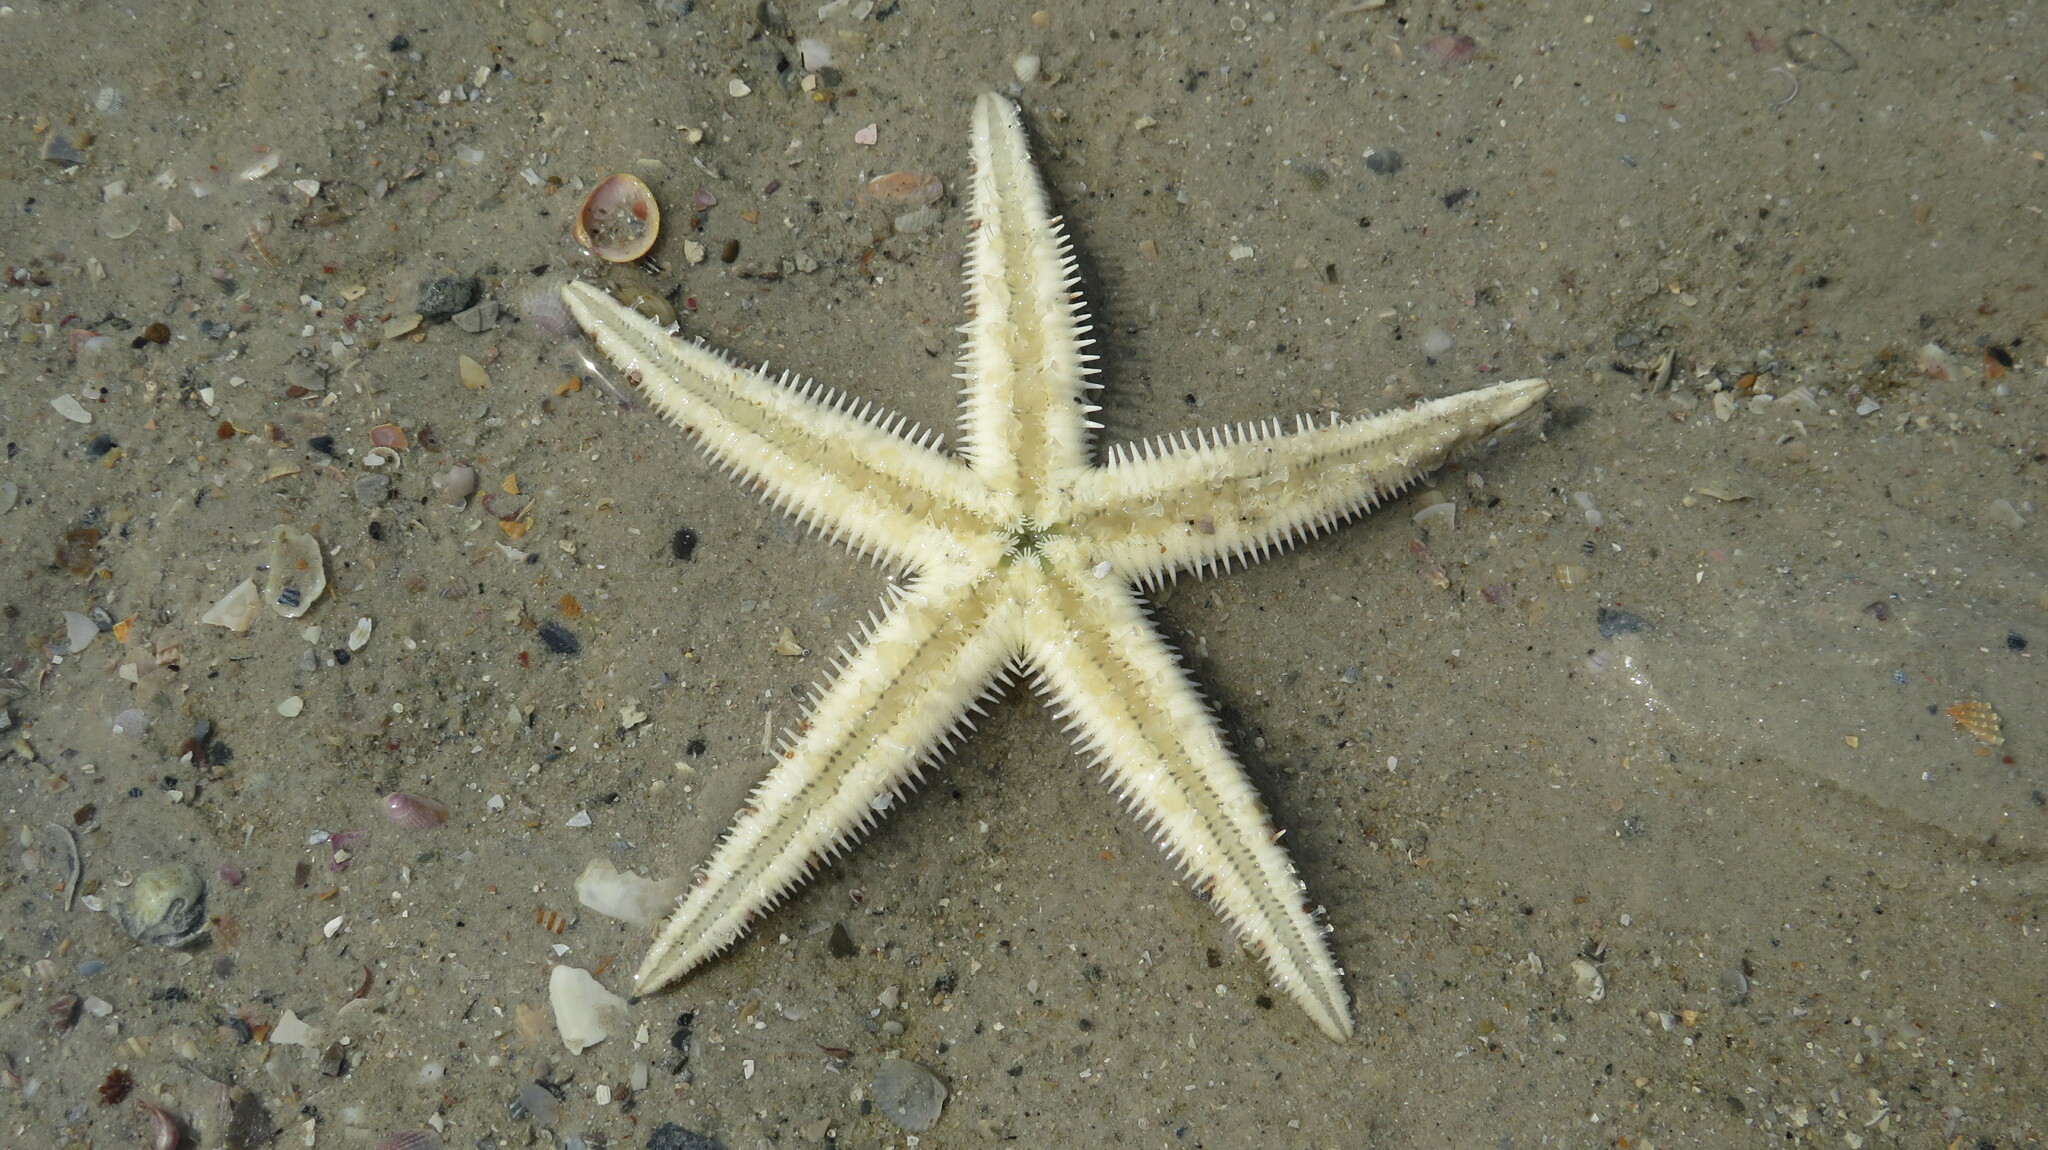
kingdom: Animalia
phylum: Echinodermata
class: Asteroidea
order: Valvatida
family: Archasteridae
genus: Archaster
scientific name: Archaster typicus
